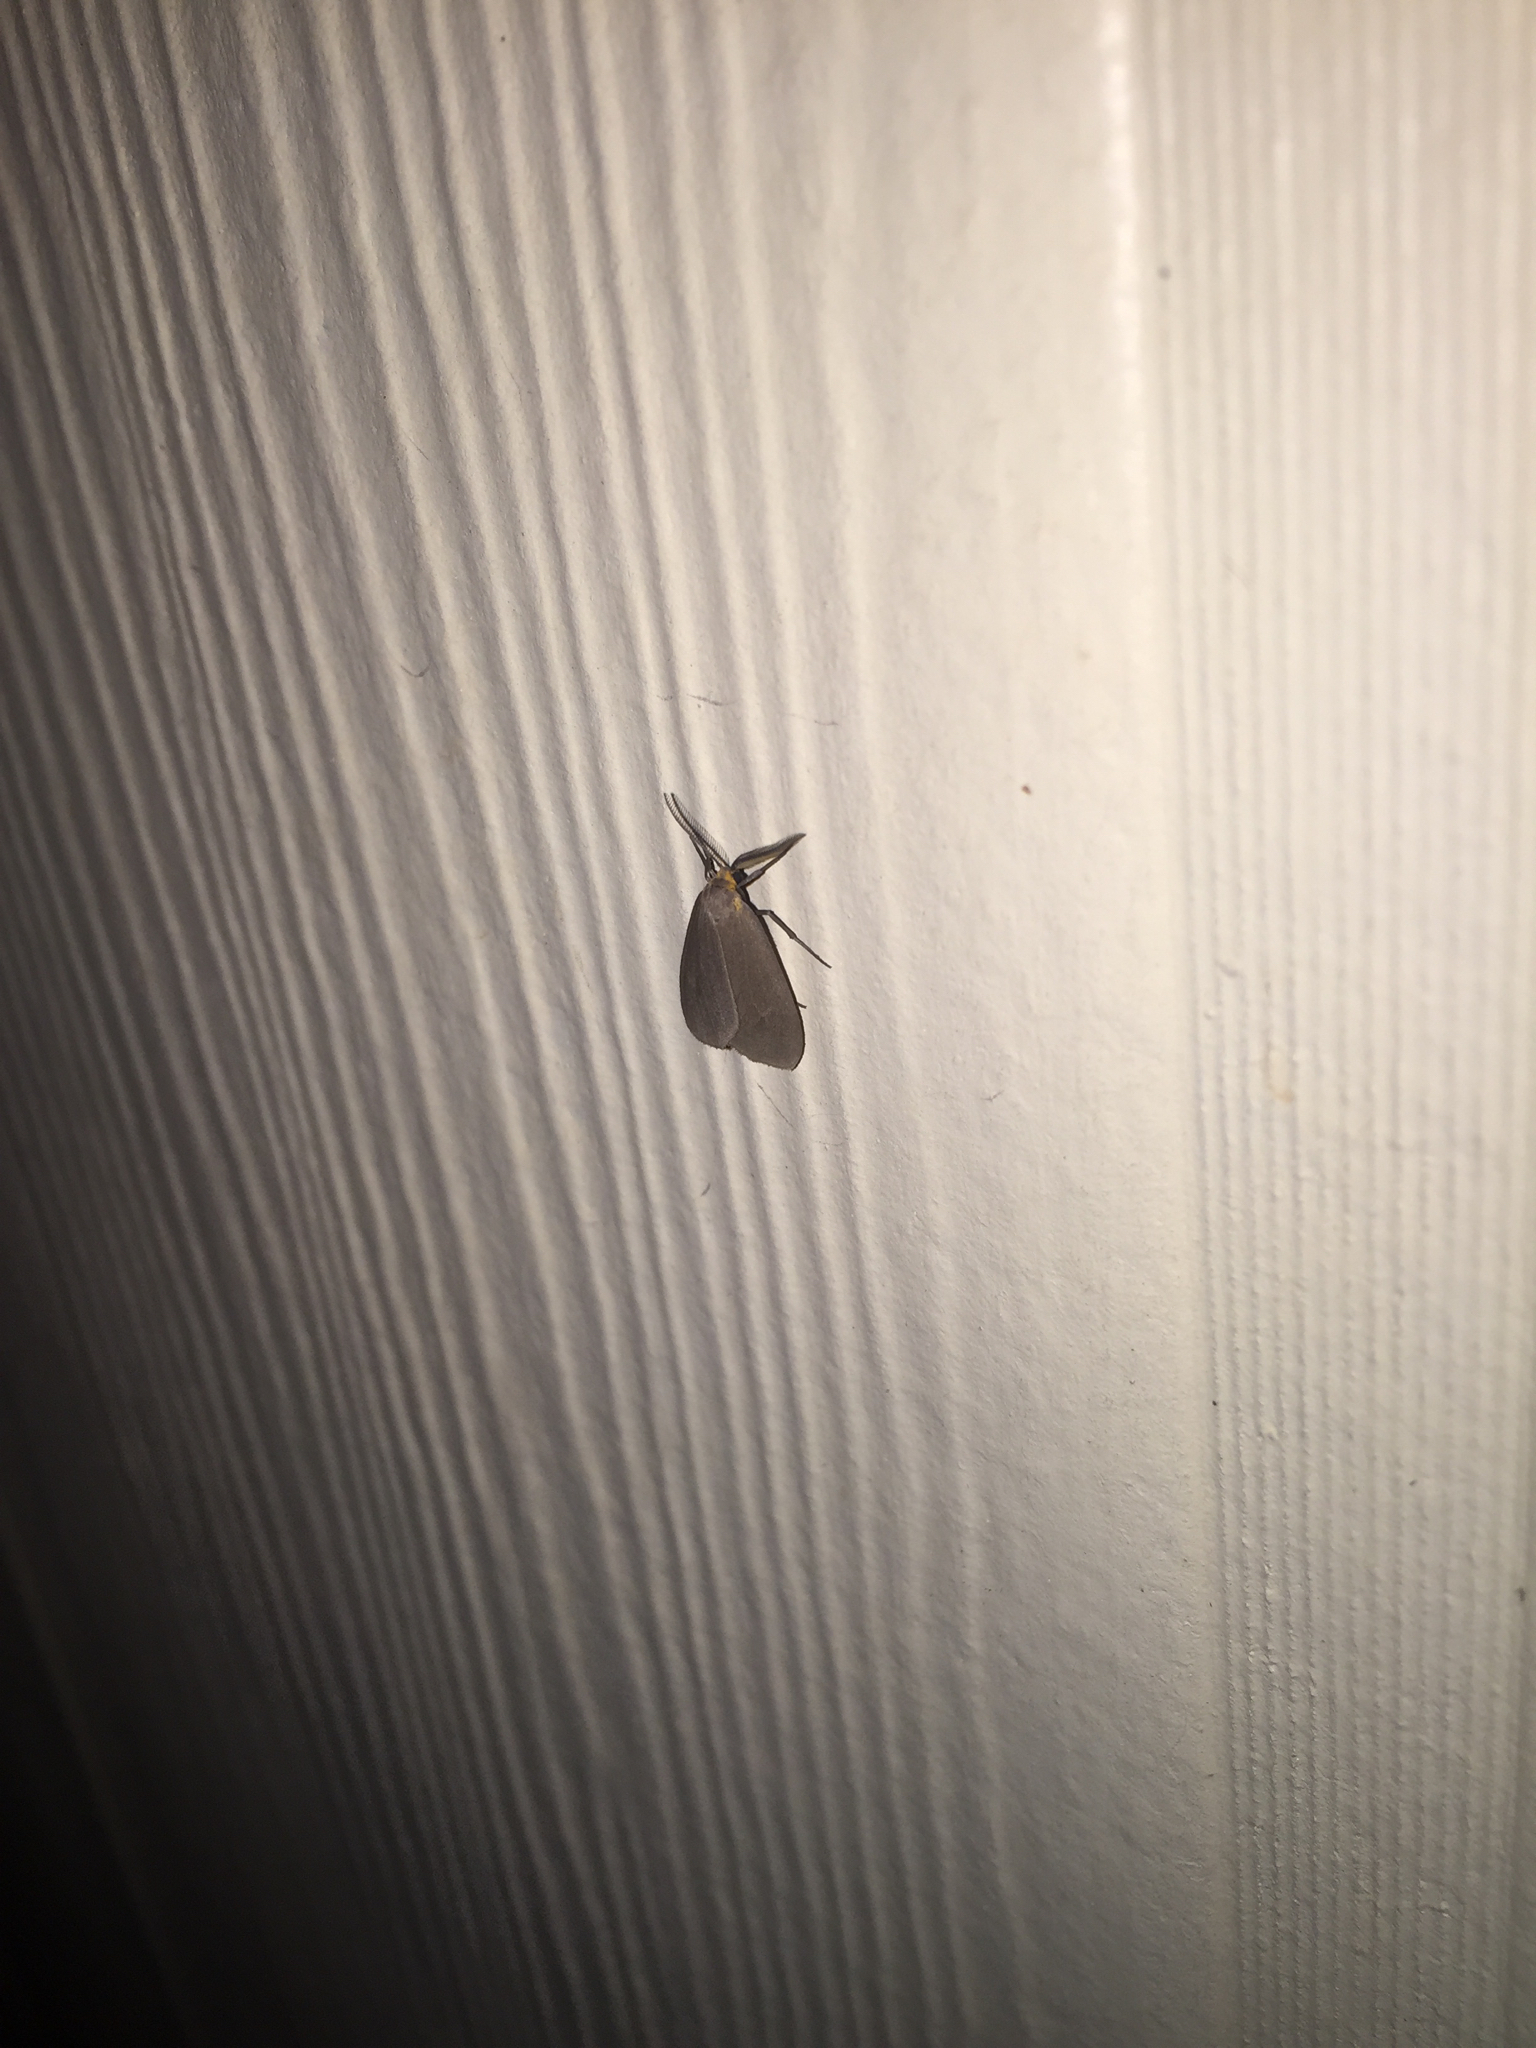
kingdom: Animalia
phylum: Arthropoda
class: Insecta
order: Lepidoptera
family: Erebidae
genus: Pagara
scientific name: Pagara simplex
